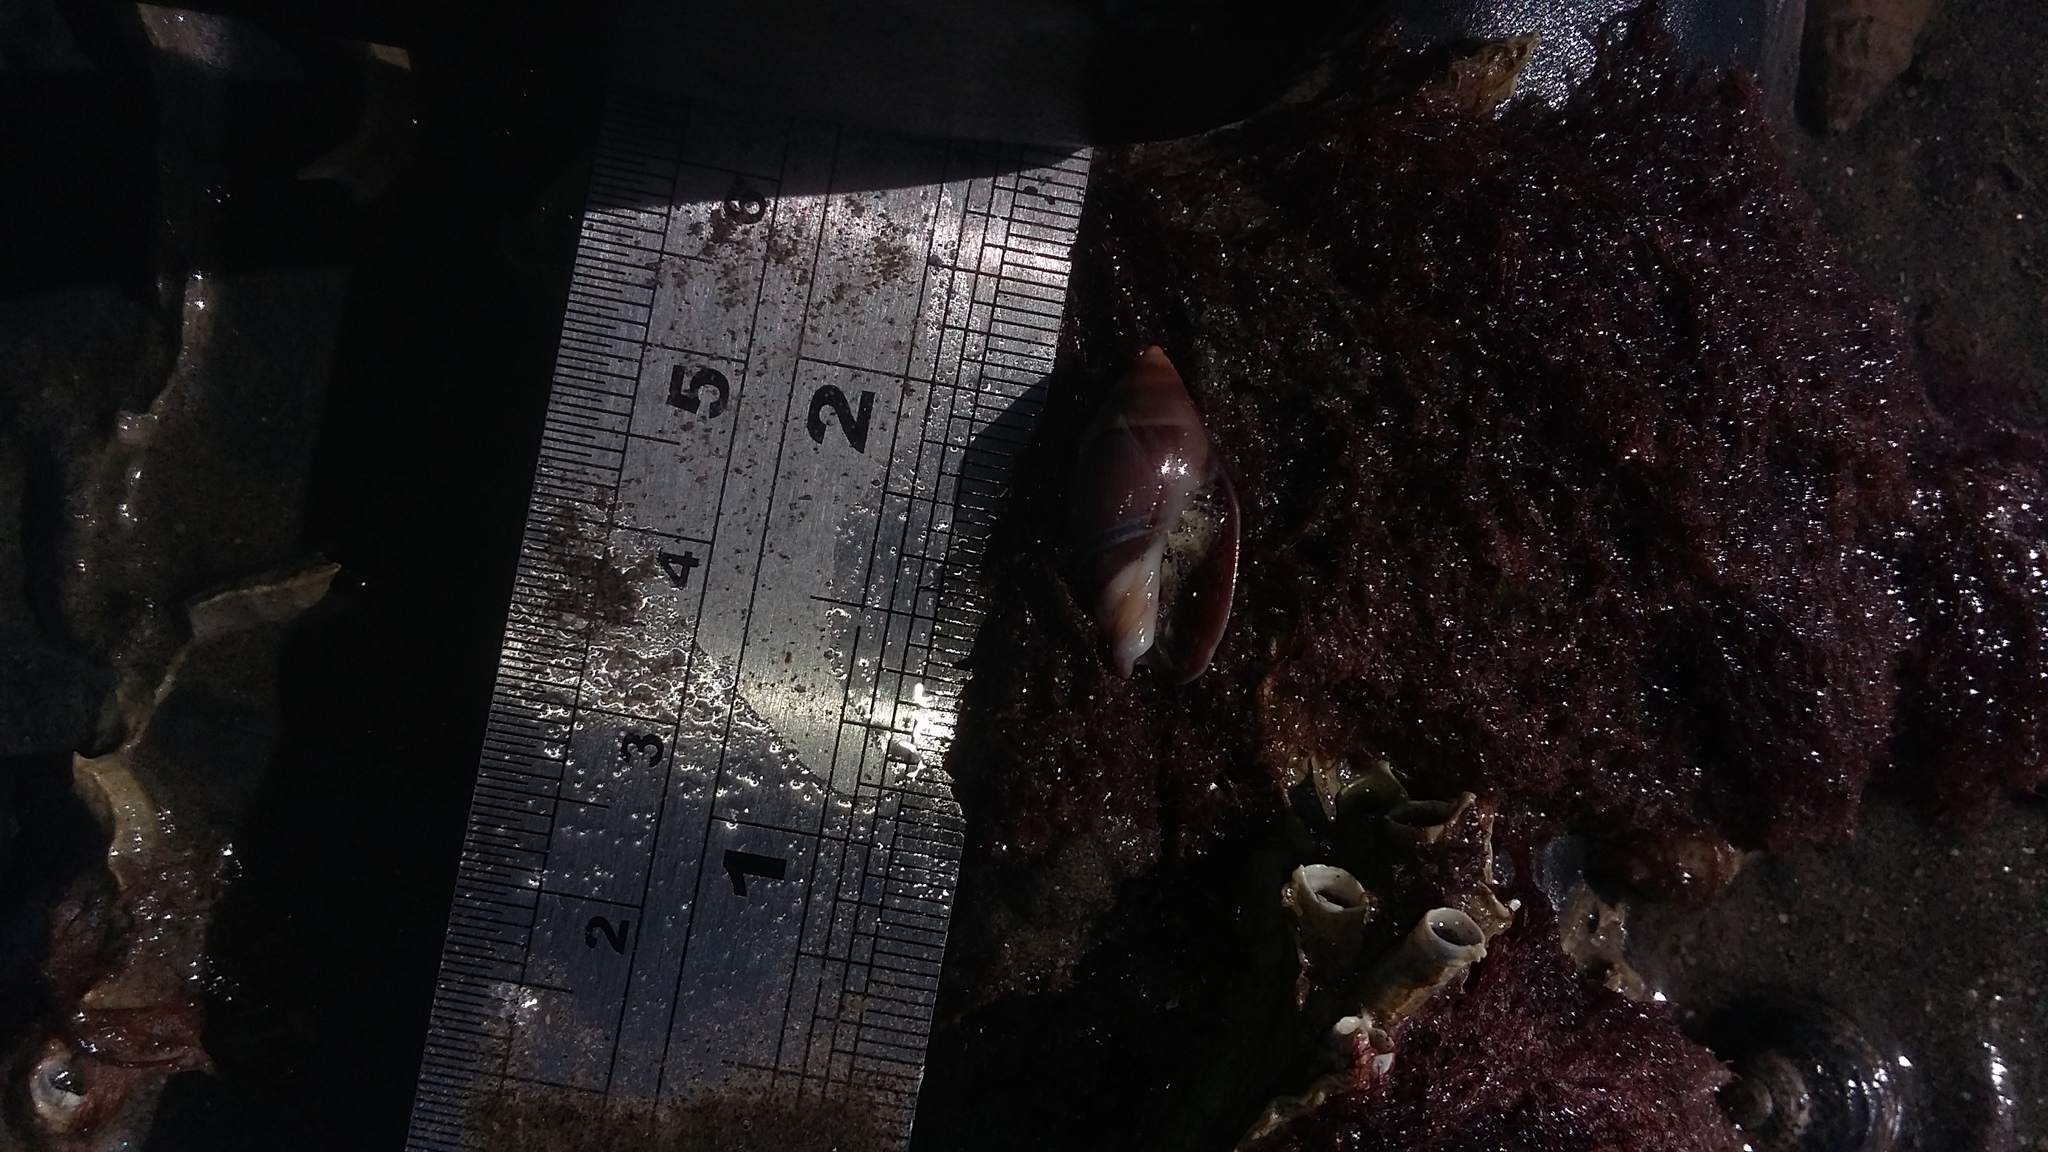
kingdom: Animalia
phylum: Mollusca
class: Gastropoda
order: Neogastropoda
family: Ancillariidae
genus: Amalda
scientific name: Amalda australis
